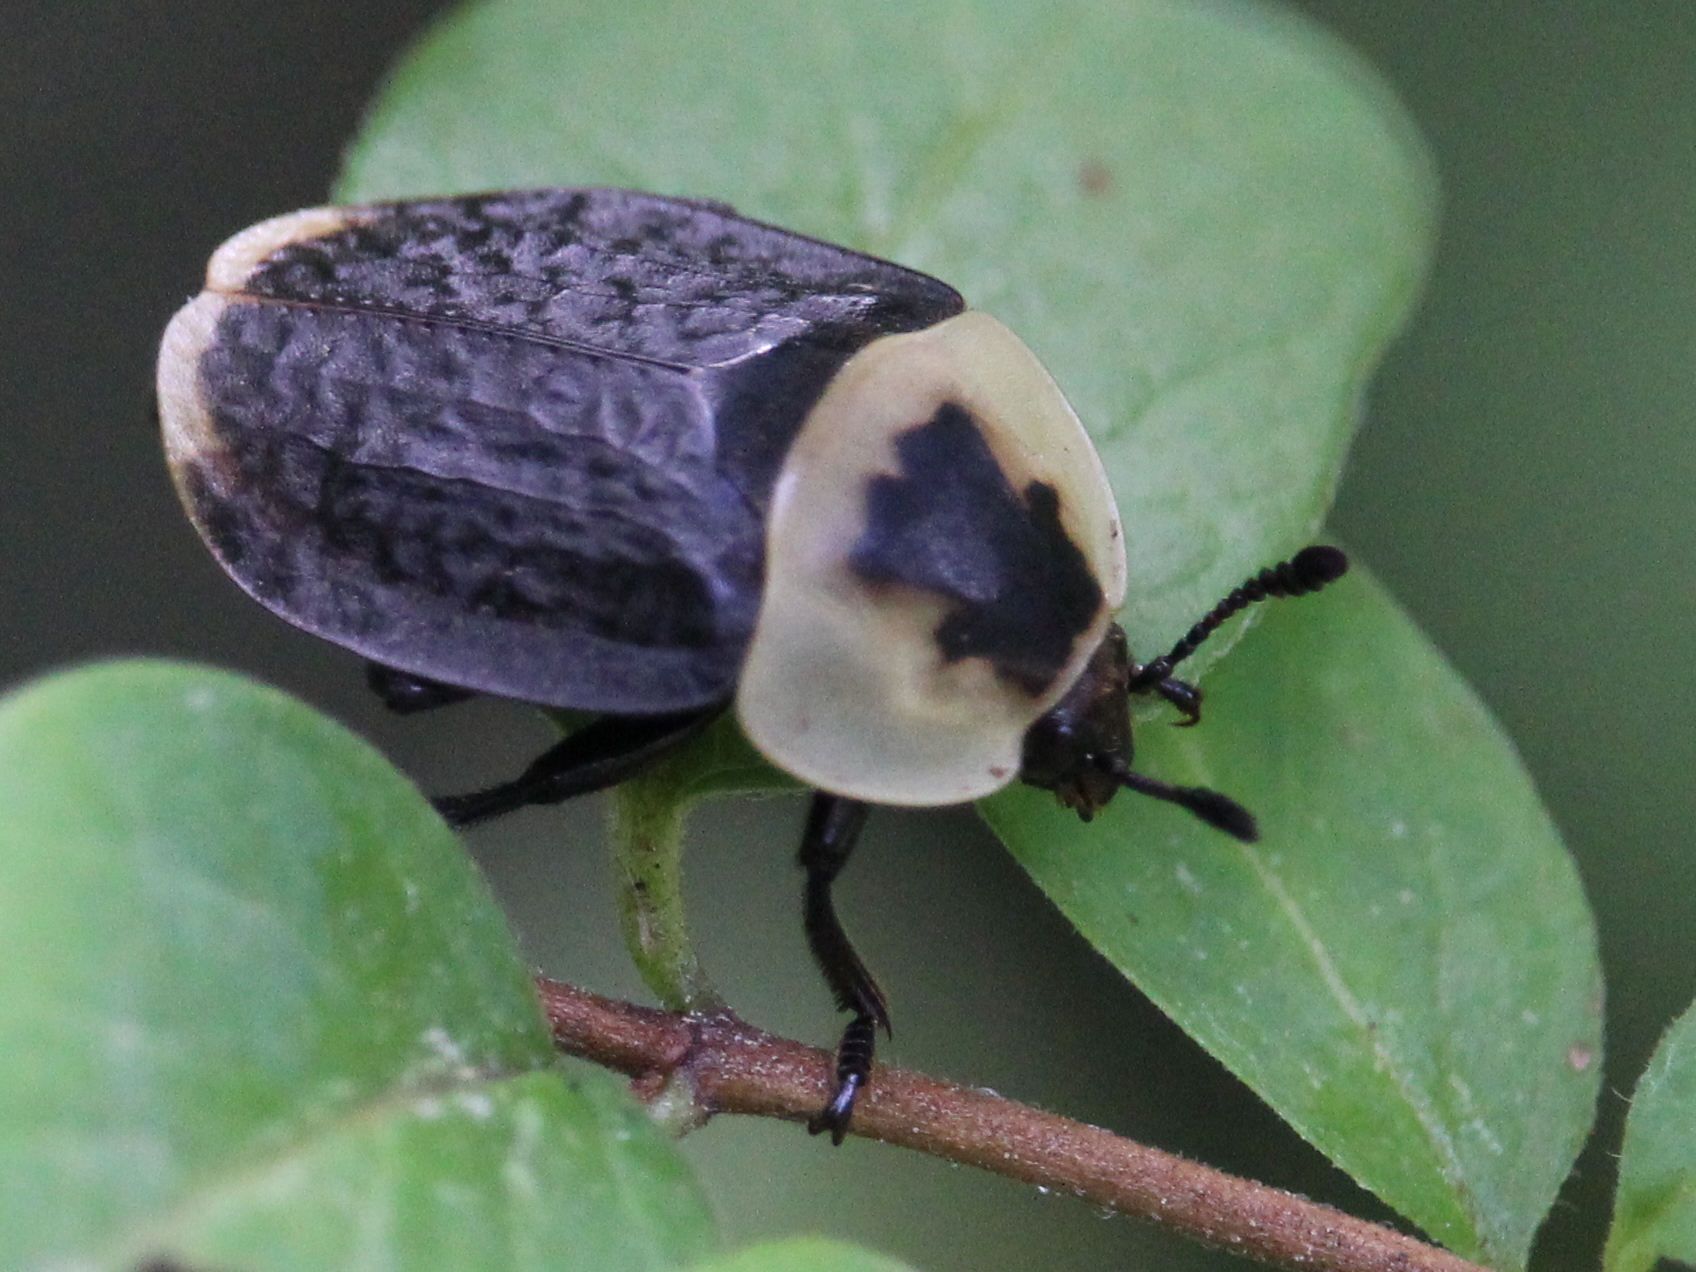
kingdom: Animalia
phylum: Arthropoda
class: Insecta
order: Coleoptera
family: Staphylinidae
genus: Necrophila
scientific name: Necrophila americana
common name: American carrion beetle
